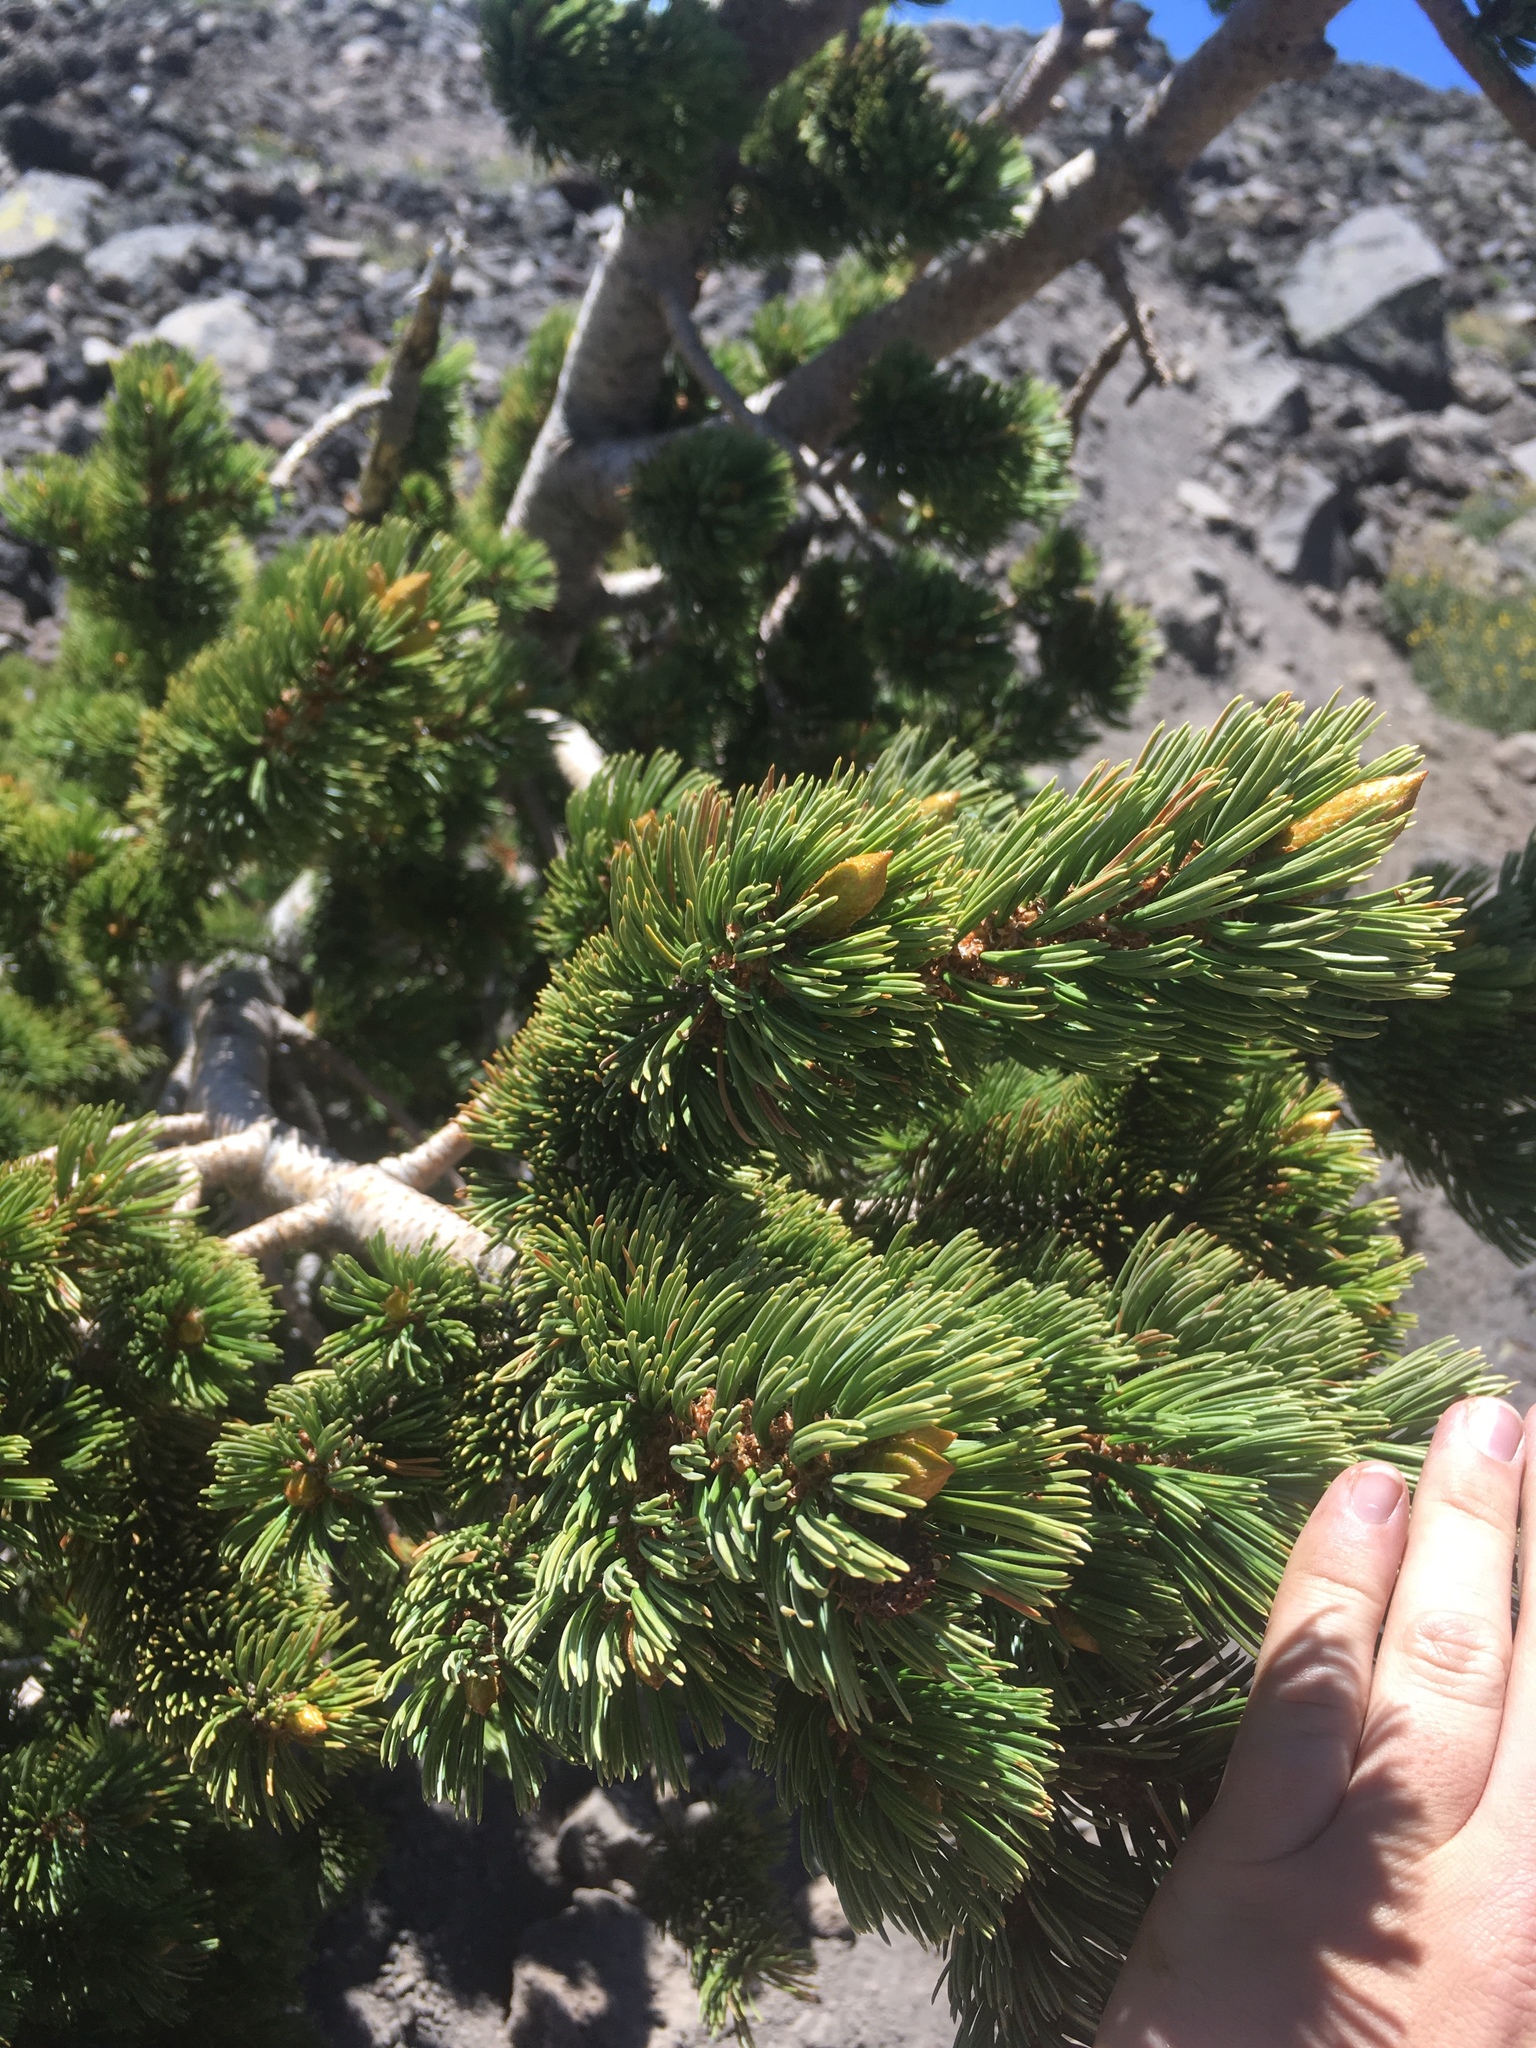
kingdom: Plantae
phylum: Tracheophyta
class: Pinopsida
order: Pinales
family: Pinaceae
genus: Pinus
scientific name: Pinus aristata
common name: Colorado bristlecone pine
